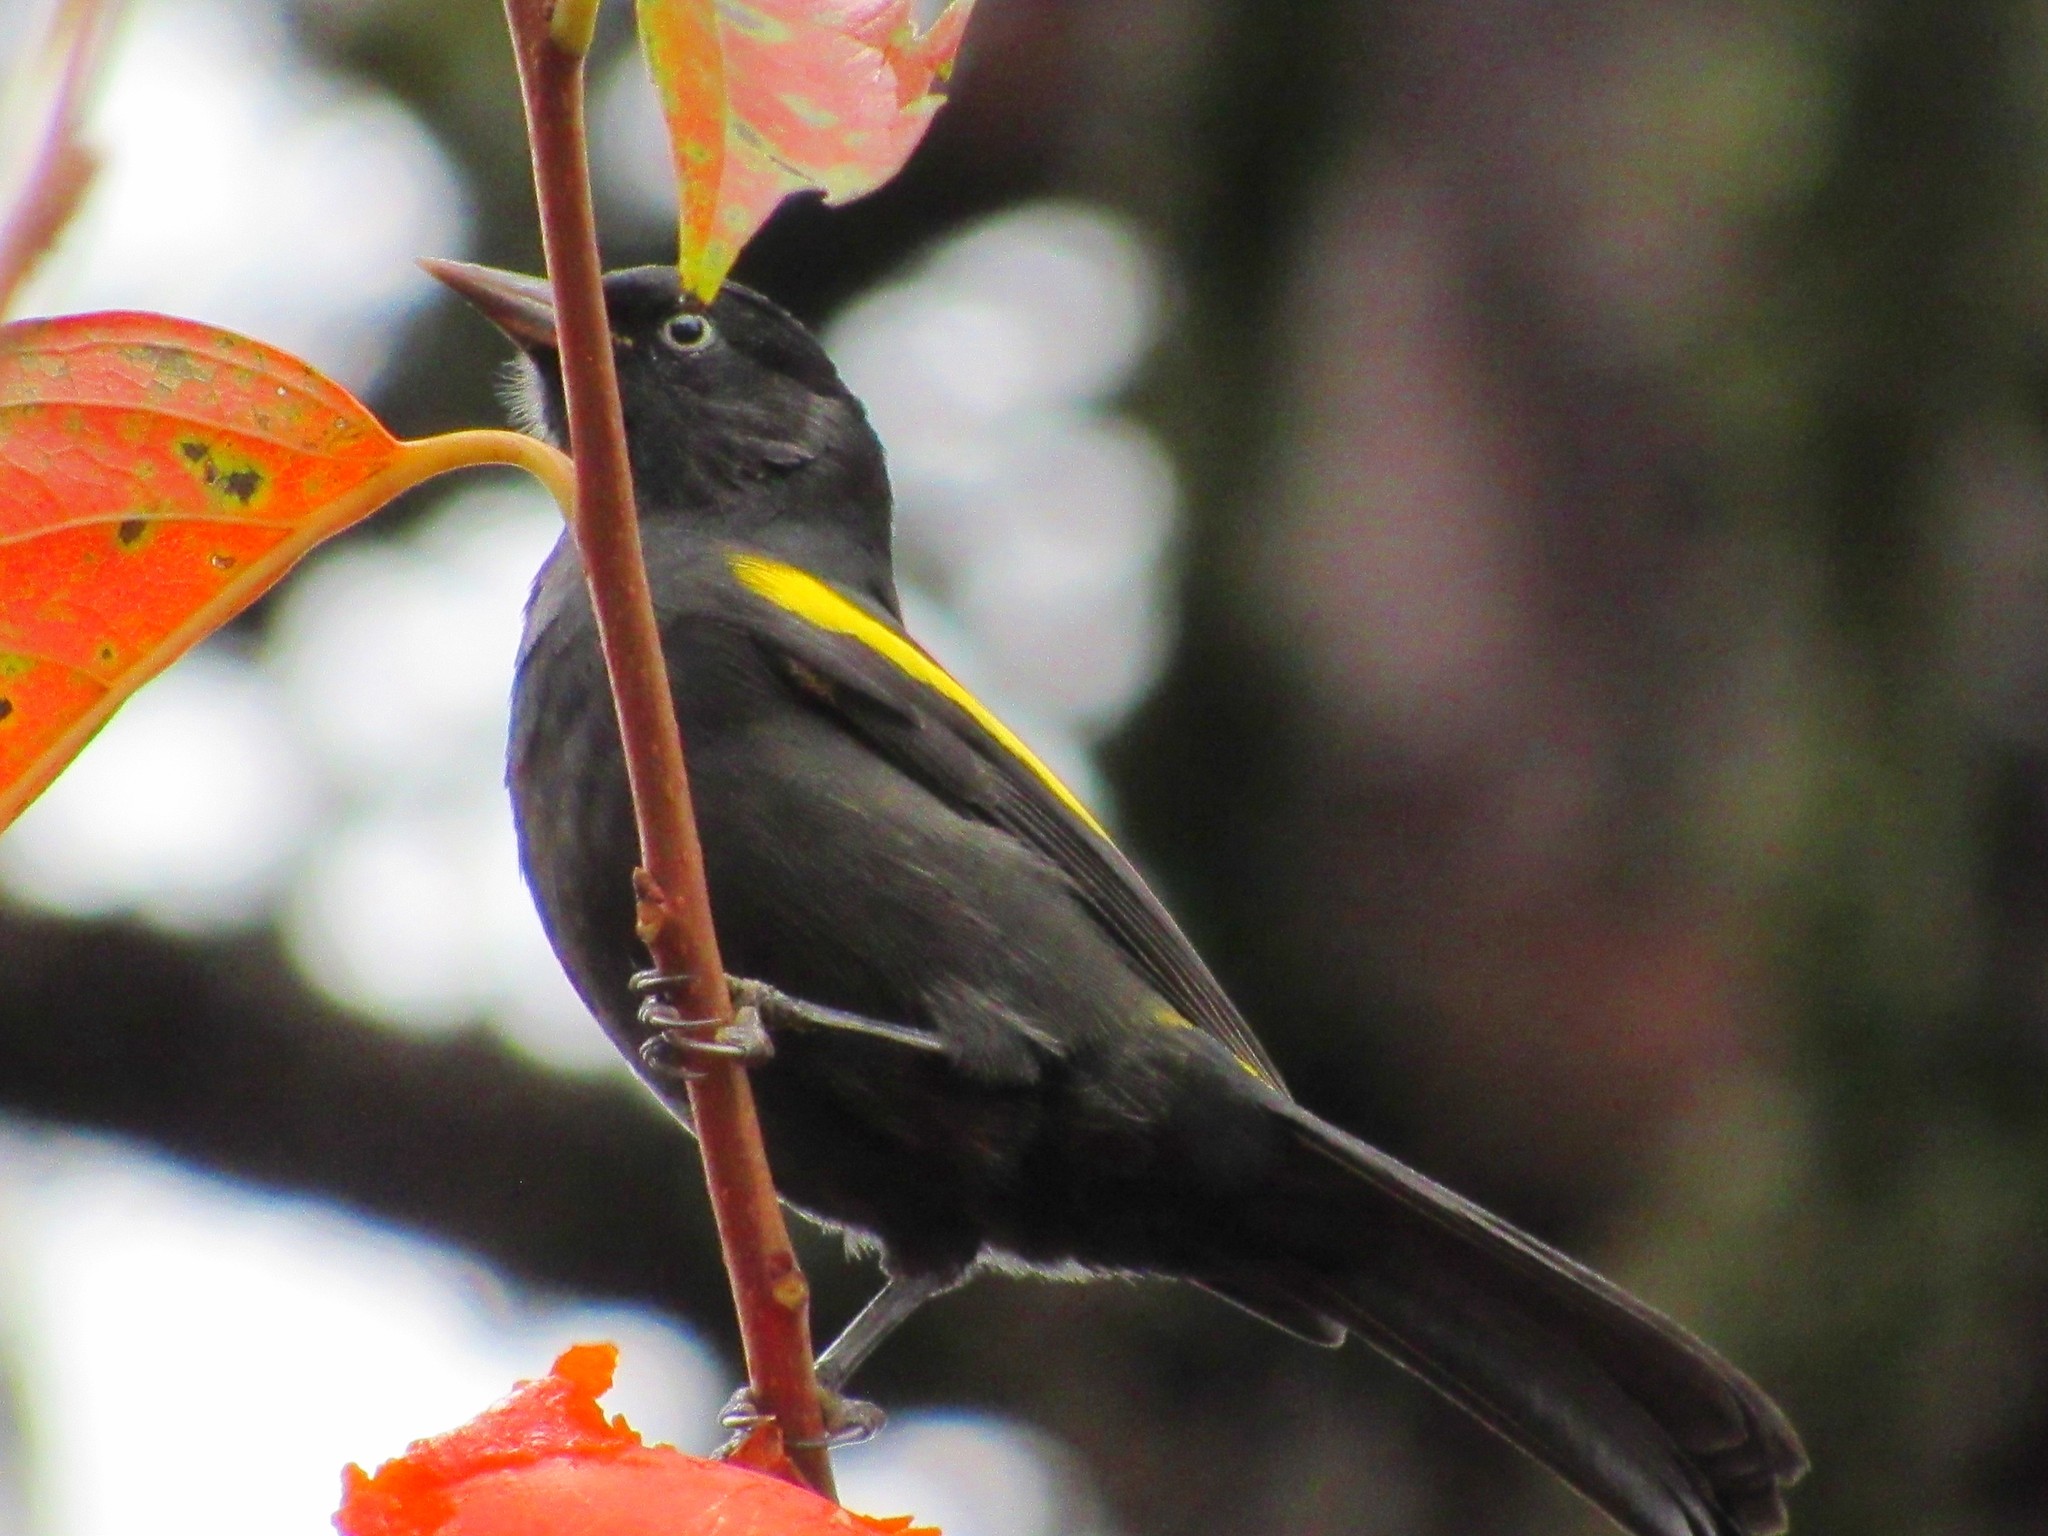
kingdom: Animalia
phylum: Chordata
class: Aves
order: Passeriformes
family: Icteridae
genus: Cacicus
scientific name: Cacicus chrysopterus
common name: Golden-winged cacique
